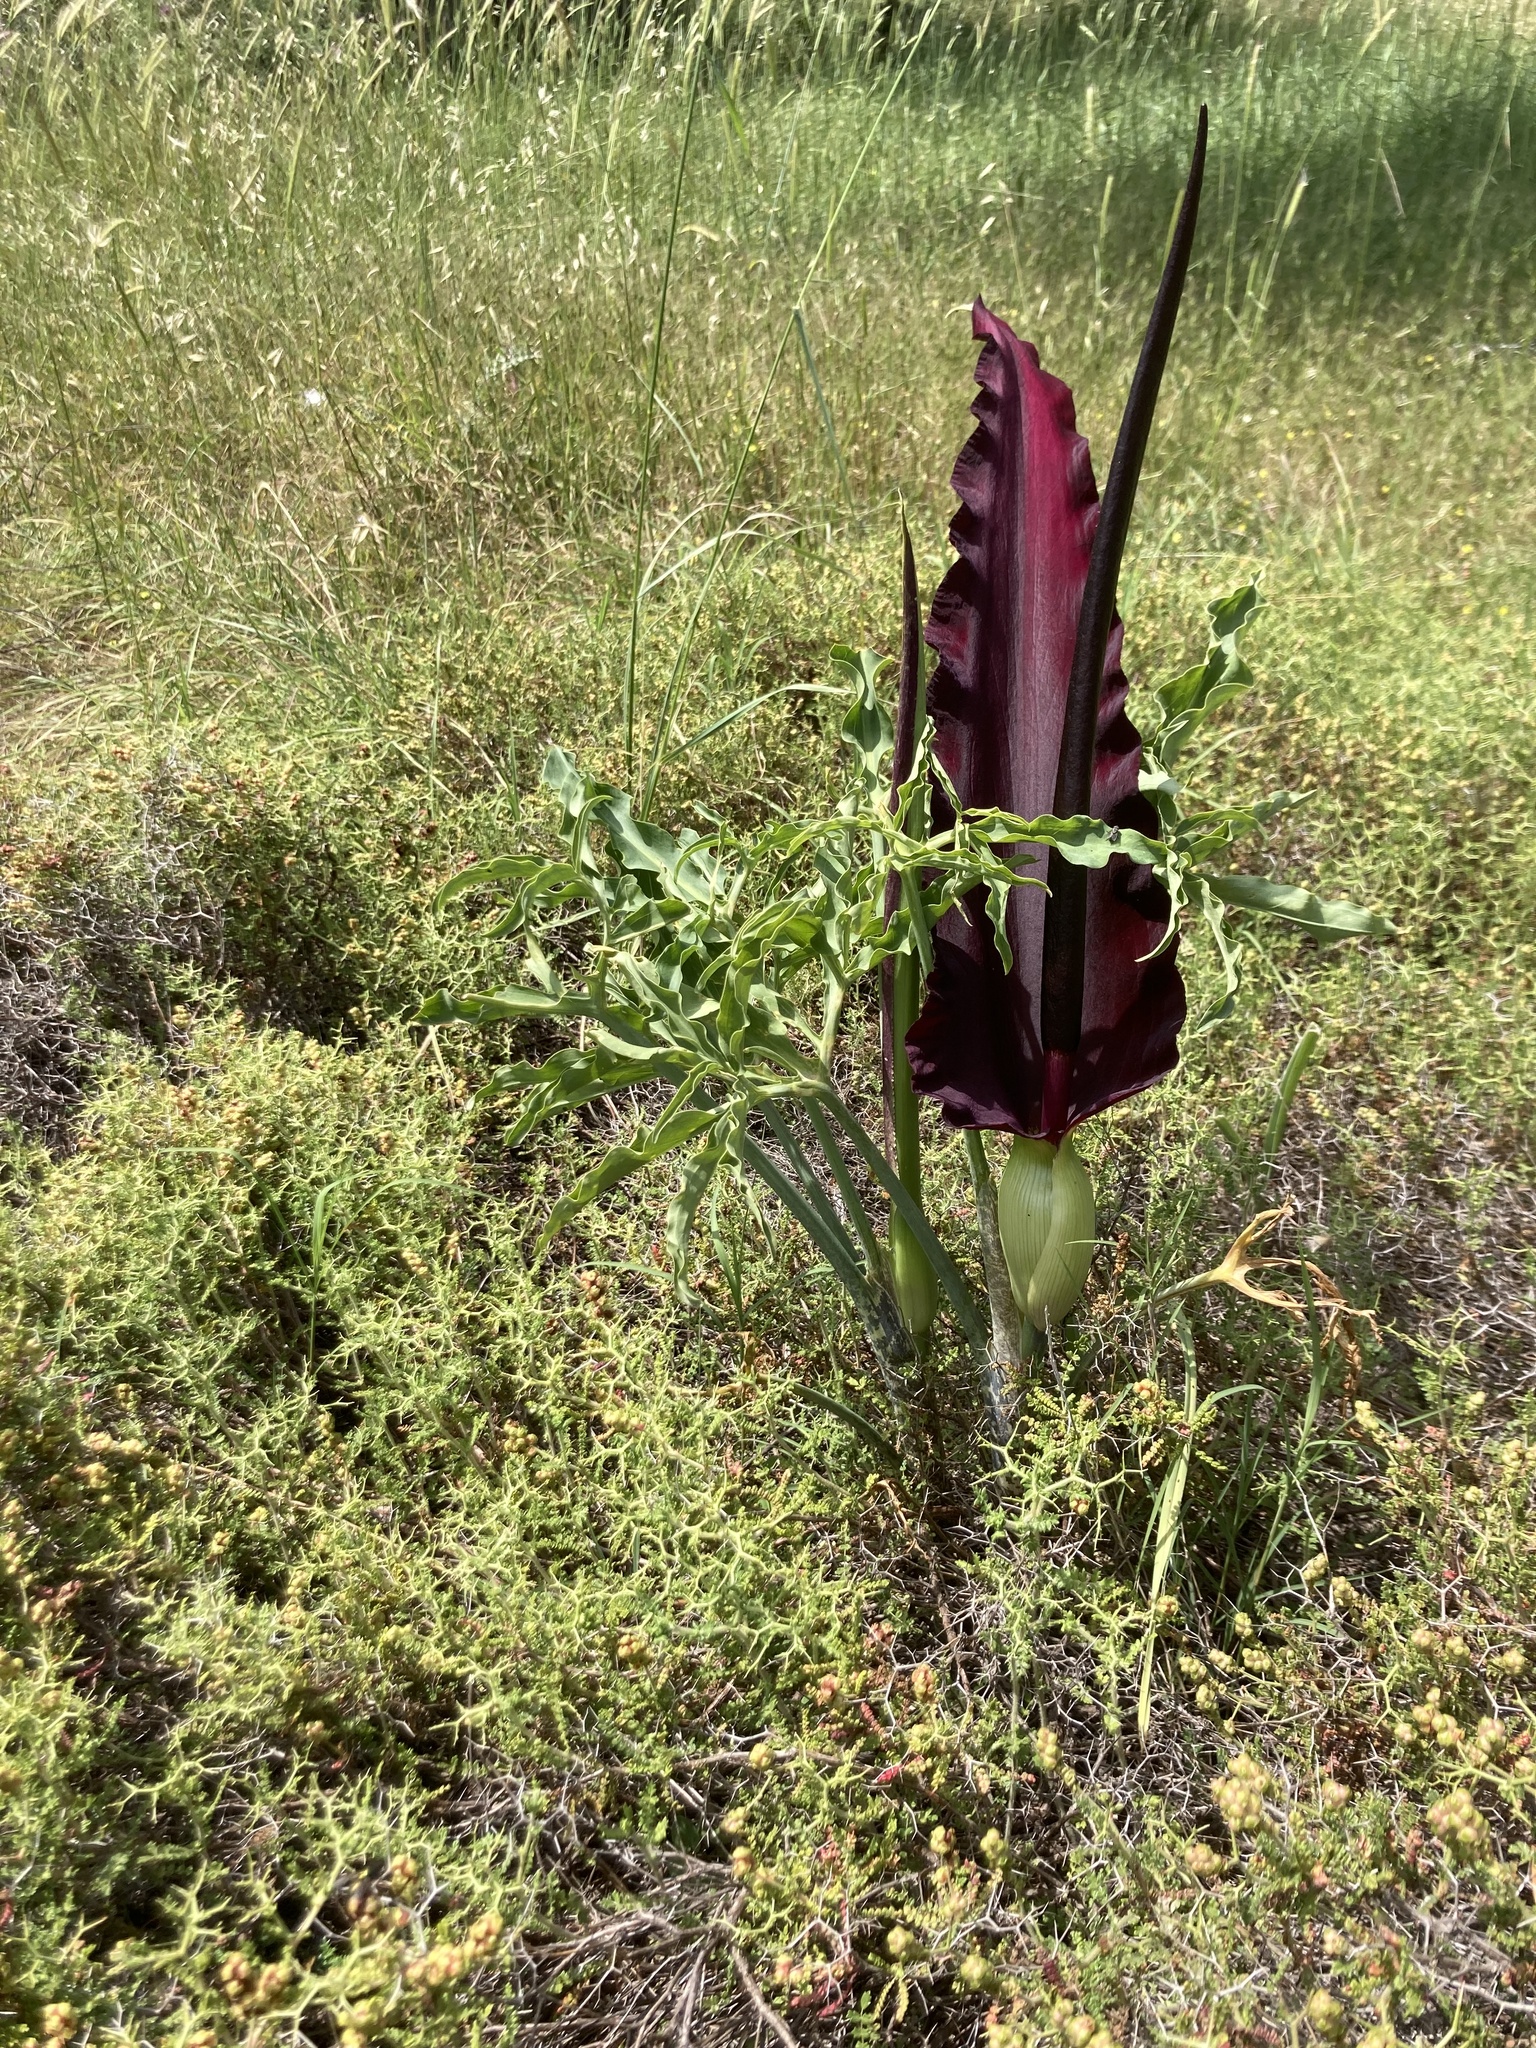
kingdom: Plantae
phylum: Tracheophyta
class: Liliopsida
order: Alismatales
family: Araceae
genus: Dracunculus
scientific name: Dracunculus vulgaris
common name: Dragon arum
